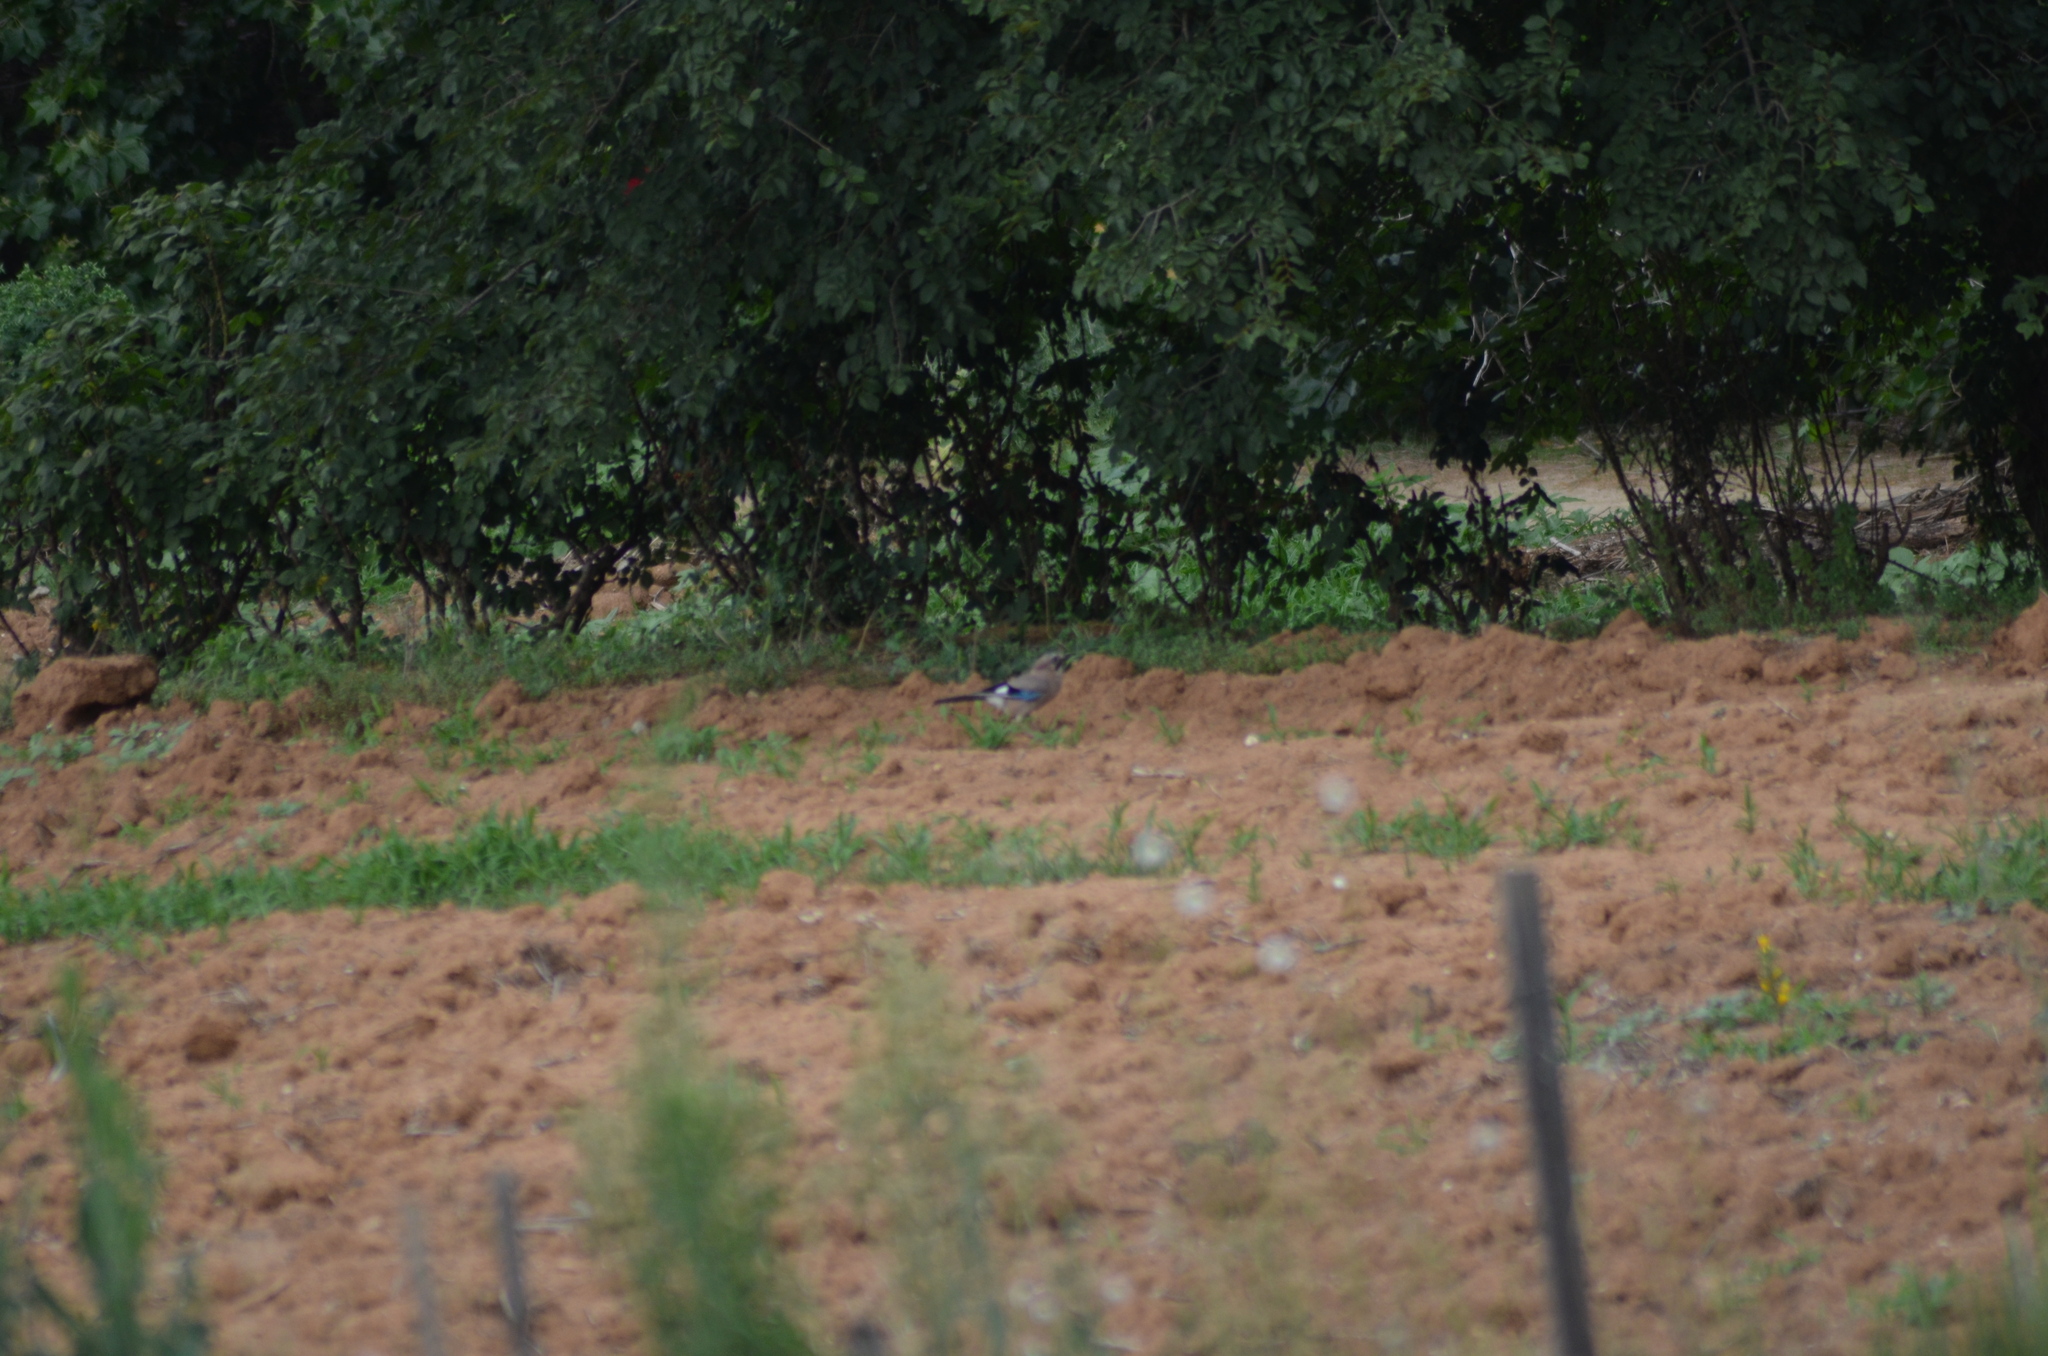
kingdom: Animalia
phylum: Chordata
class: Aves
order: Passeriformes
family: Corvidae
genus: Garrulus
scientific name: Garrulus glandarius
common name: Eurasian jay
